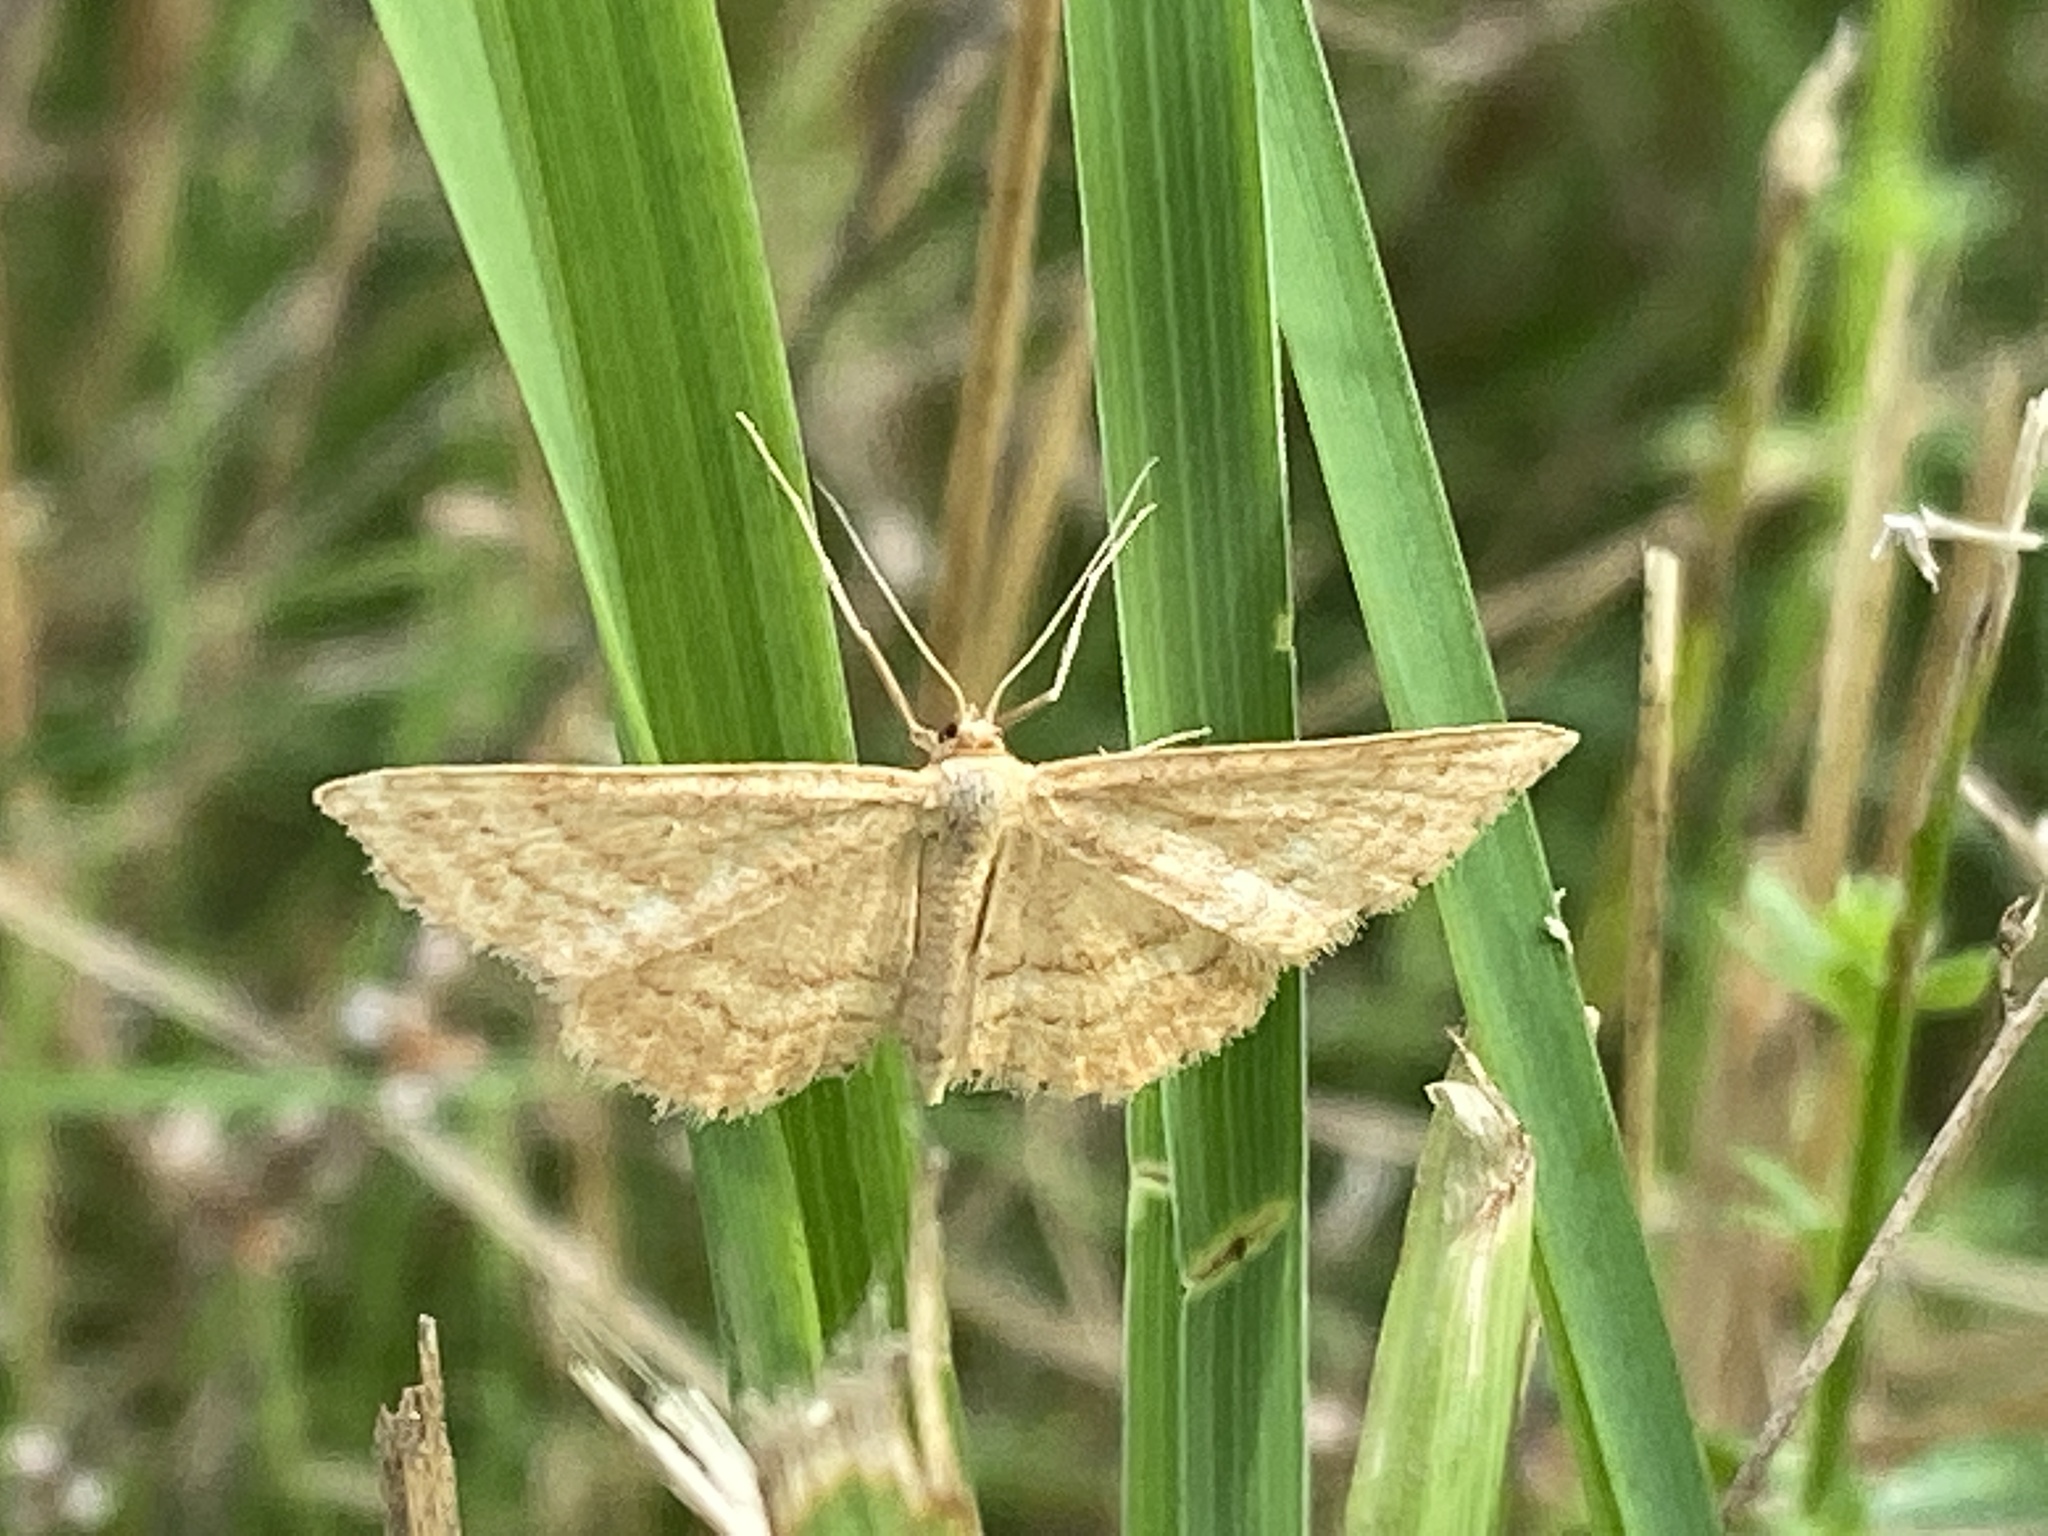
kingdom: Animalia
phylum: Arthropoda
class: Insecta
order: Lepidoptera
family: Geometridae
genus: Idaea
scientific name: Idaea ochrata
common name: Bright wave
